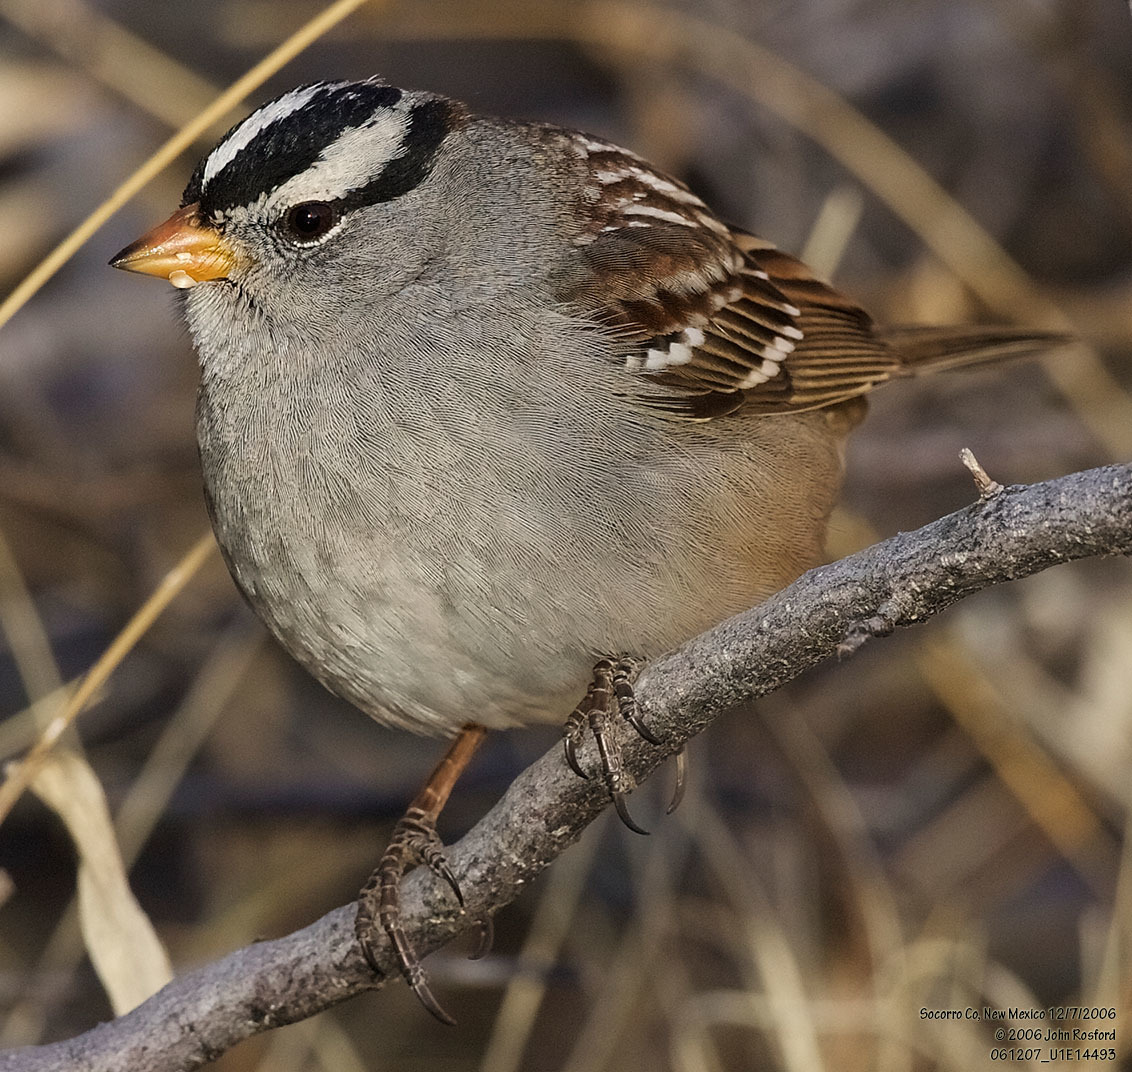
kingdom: Animalia
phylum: Chordata
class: Aves
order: Passeriformes
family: Passerellidae
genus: Zonotrichia
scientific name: Zonotrichia leucophrys
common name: White-crowned sparrow
